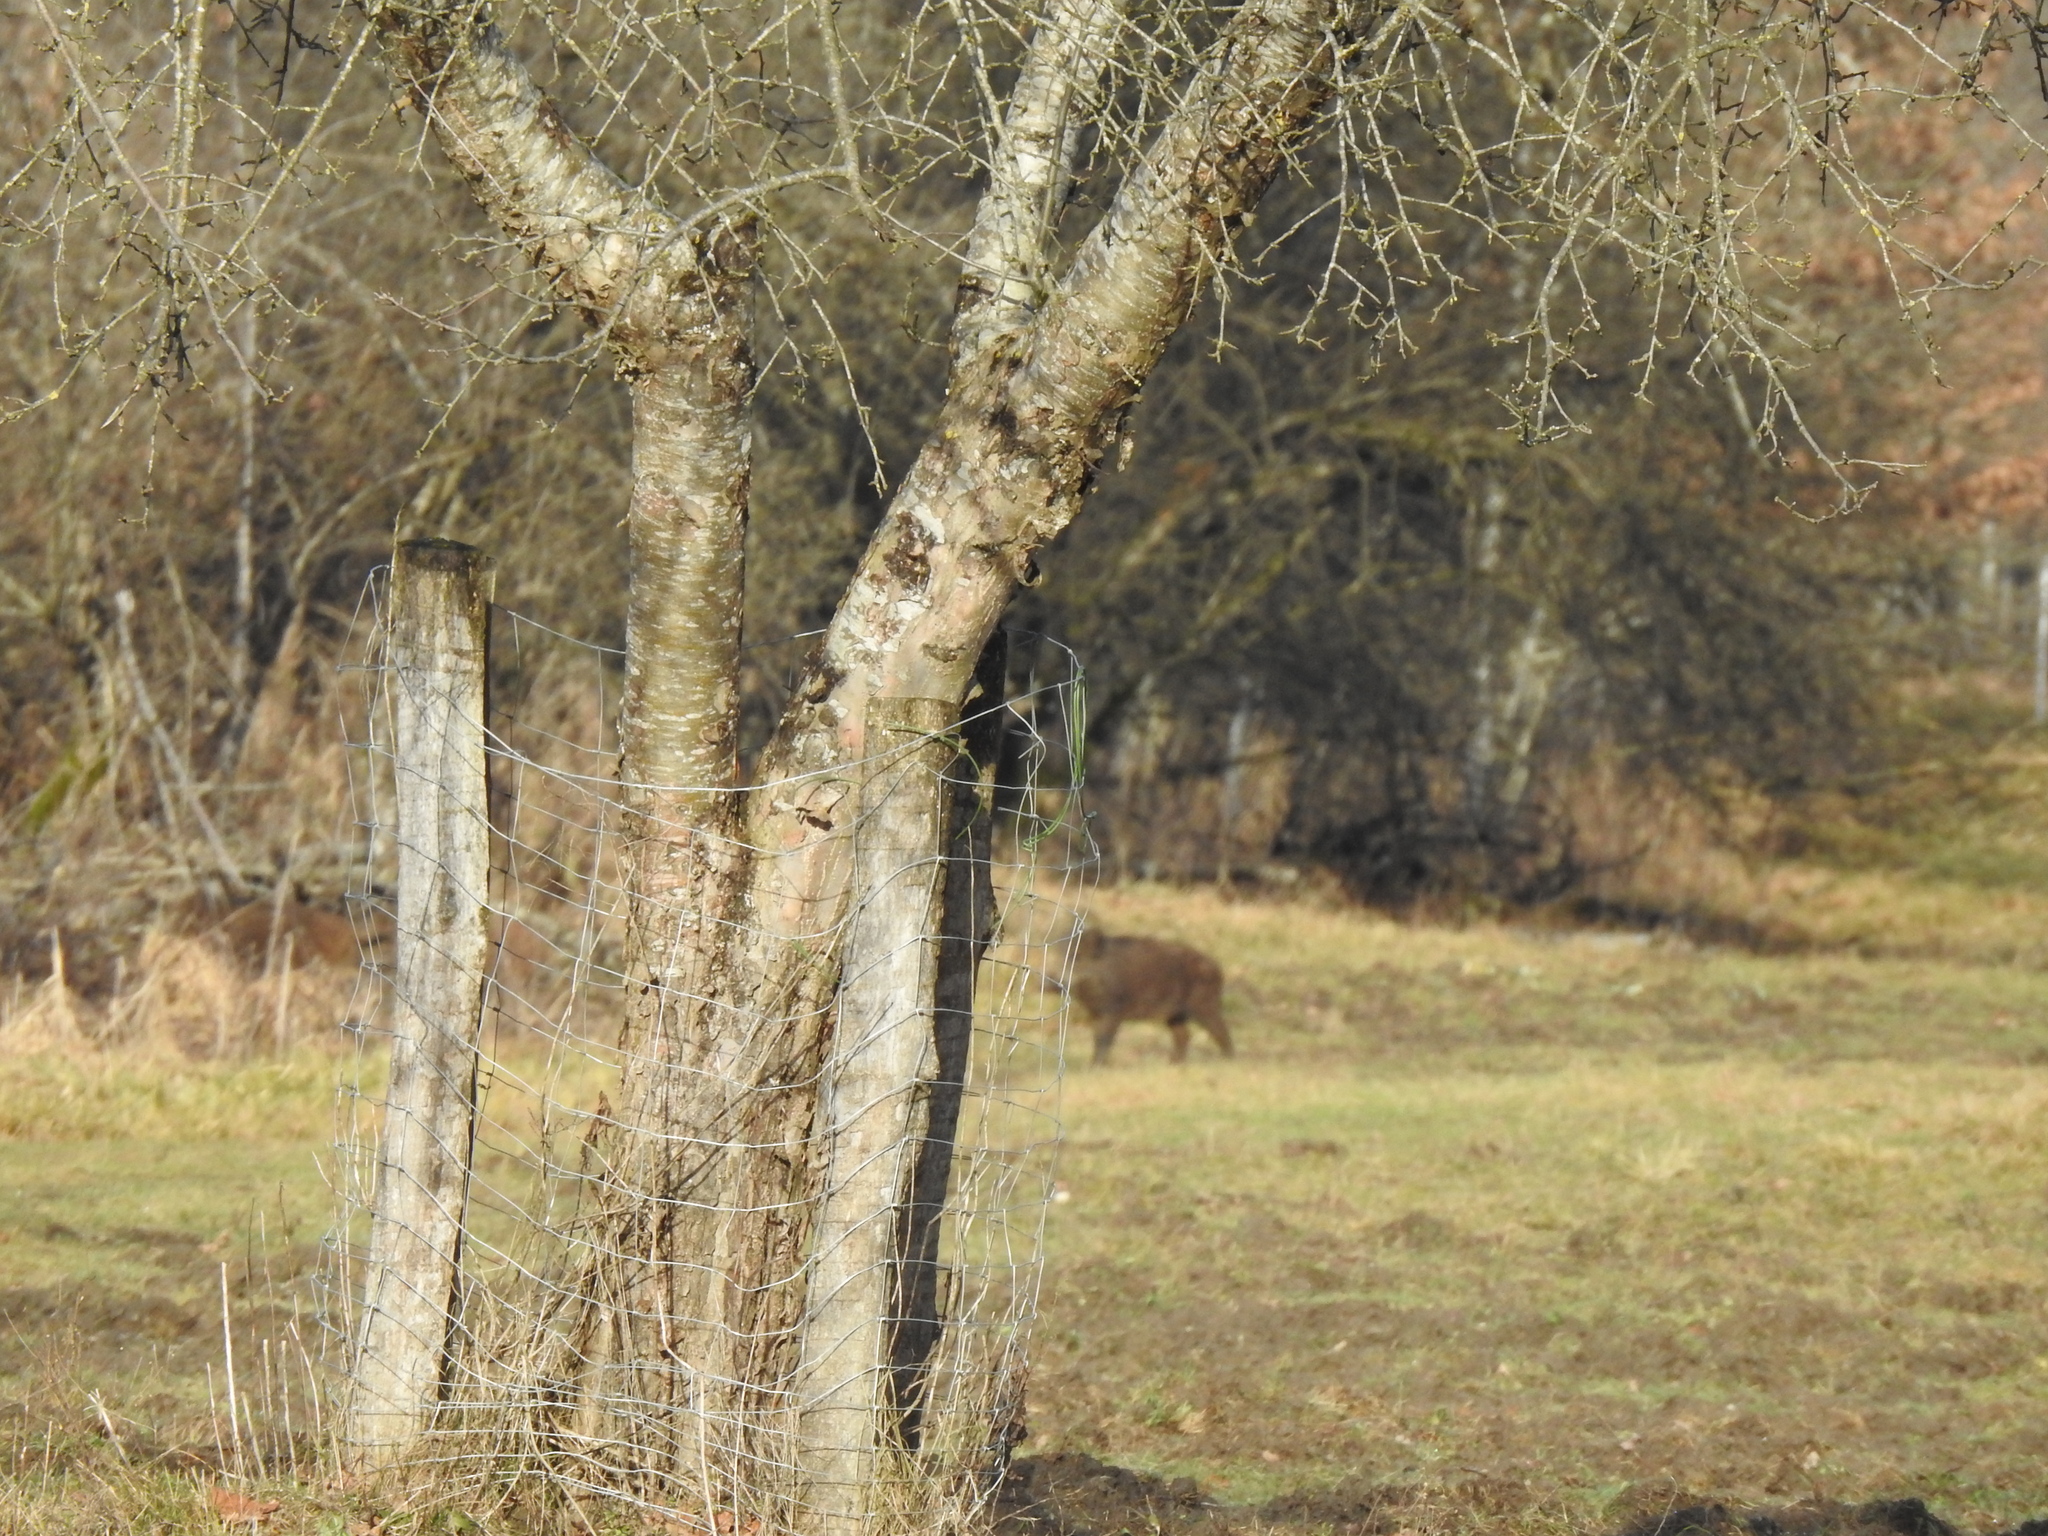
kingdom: Animalia
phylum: Chordata
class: Mammalia
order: Artiodactyla
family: Suidae
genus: Sus
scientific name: Sus scrofa
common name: Wild boar
